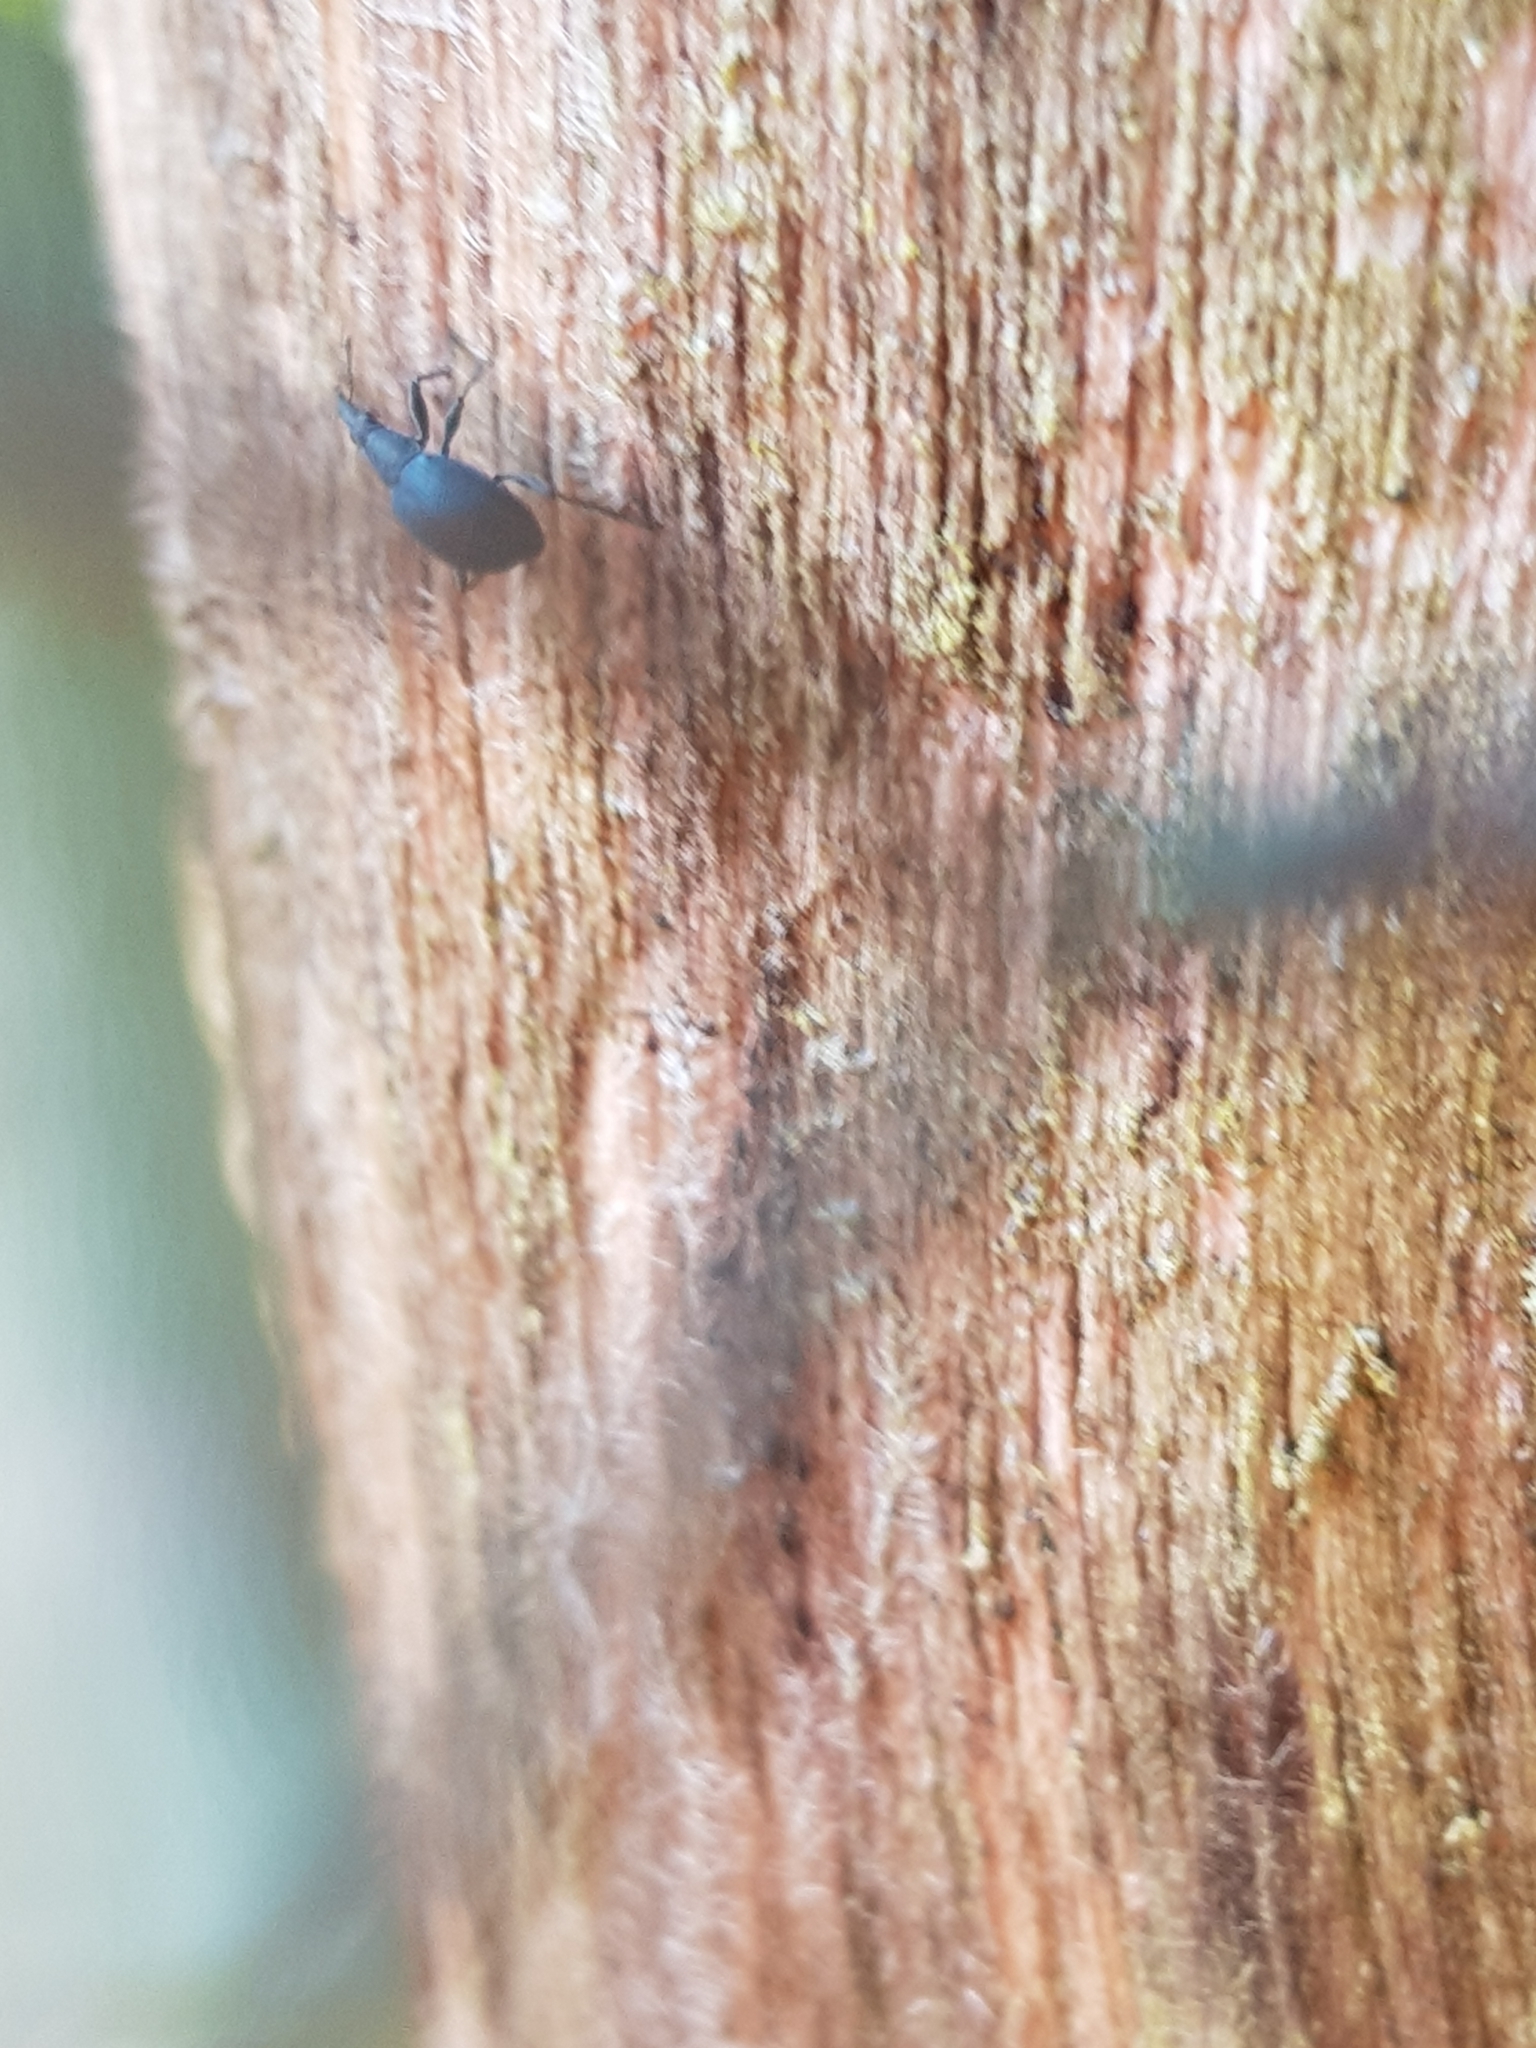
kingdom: Animalia
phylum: Arthropoda
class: Insecta
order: Coleoptera
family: Apionidae
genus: Oxystoma
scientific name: Oxystoma pomonae
